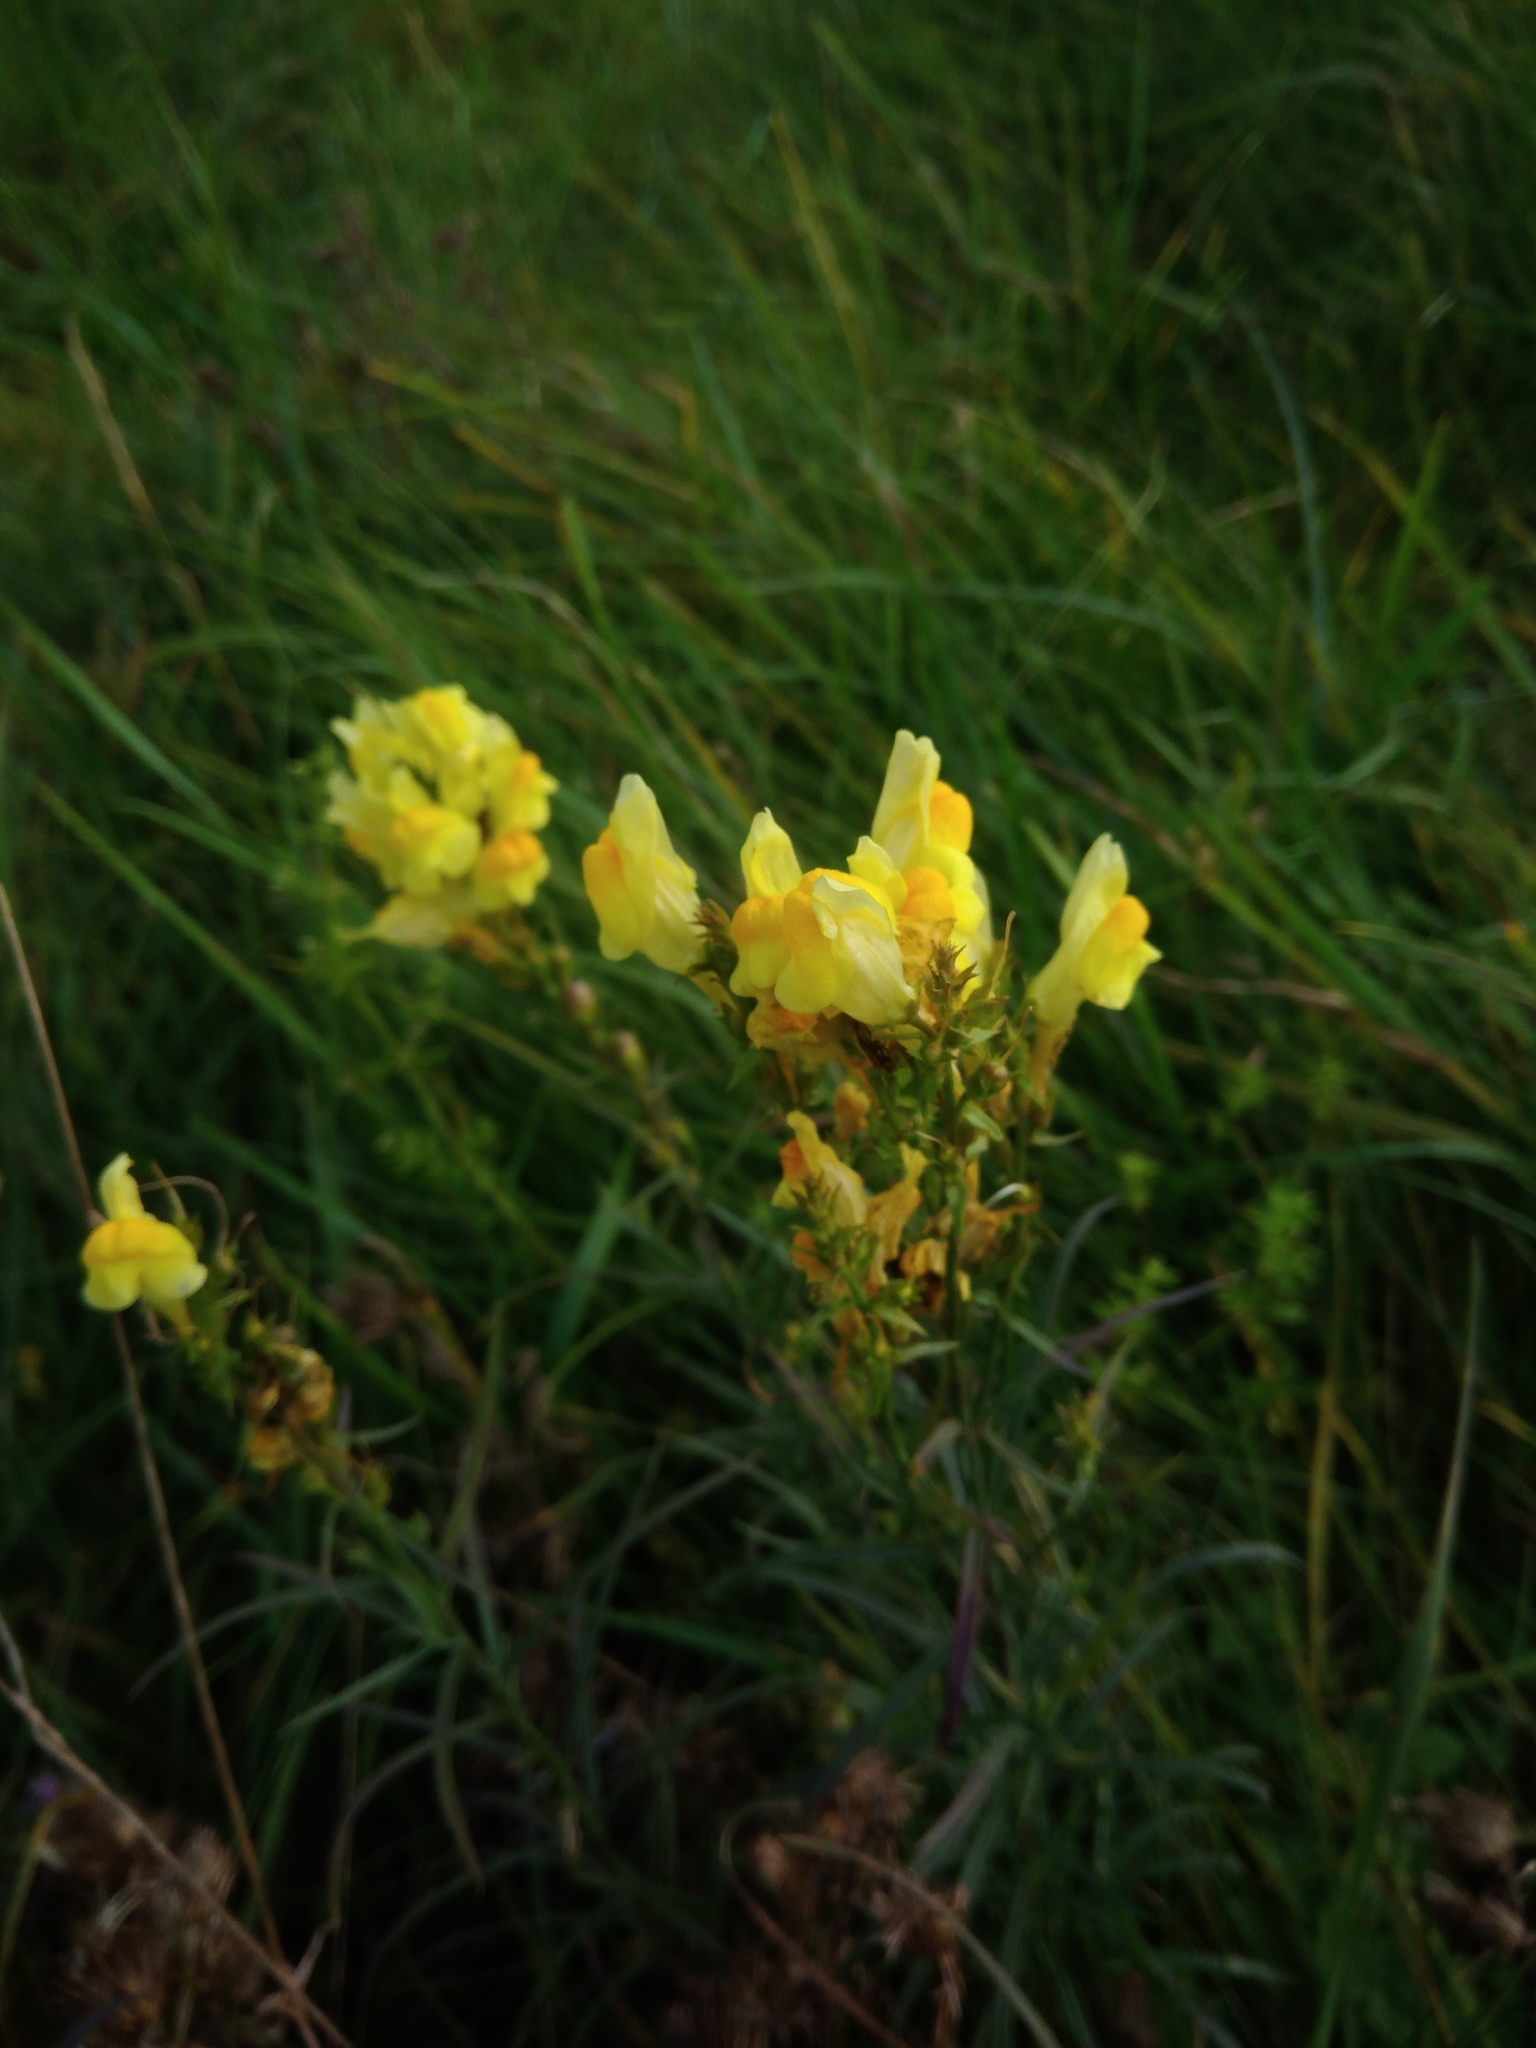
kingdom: Plantae
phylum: Tracheophyta
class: Magnoliopsida
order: Lamiales
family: Plantaginaceae
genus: Linaria
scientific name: Linaria vulgaris
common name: Butter and eggs
